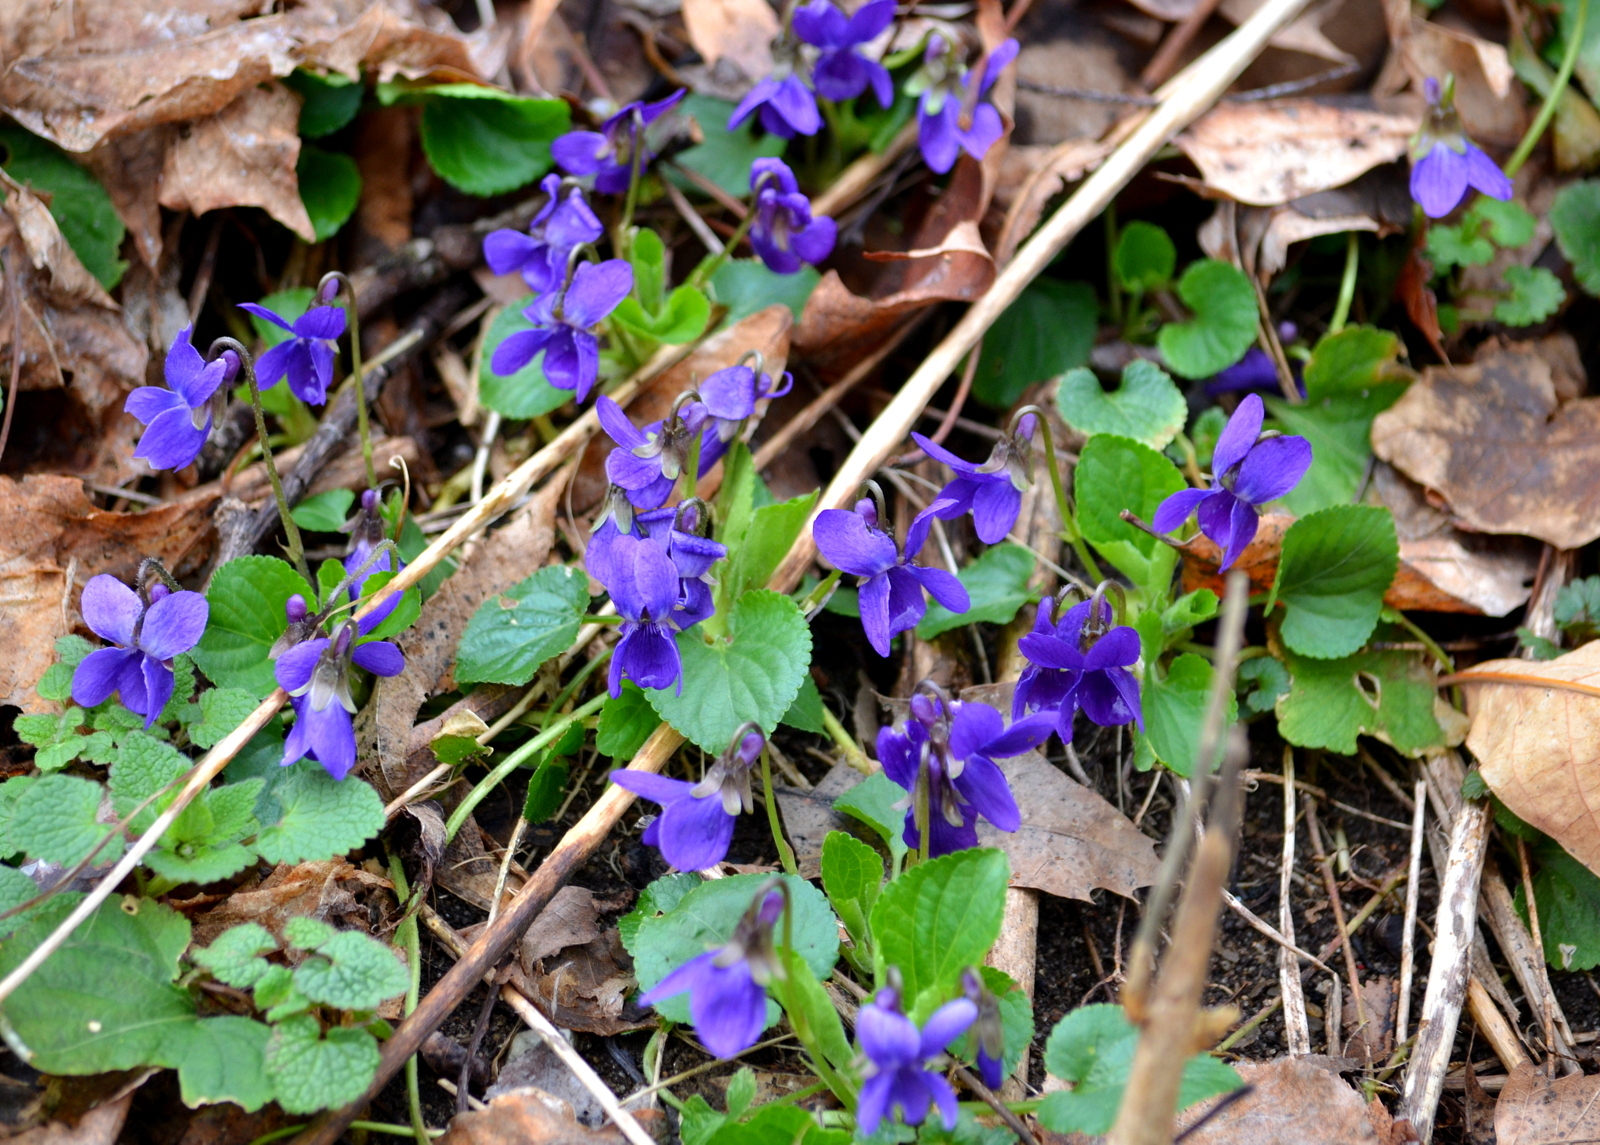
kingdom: Plantae
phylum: Tracheophyta
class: Magnoliopsida
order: Malpighiales
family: Violaceae
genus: Viola
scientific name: Viola sororia
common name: Dooryard violet
